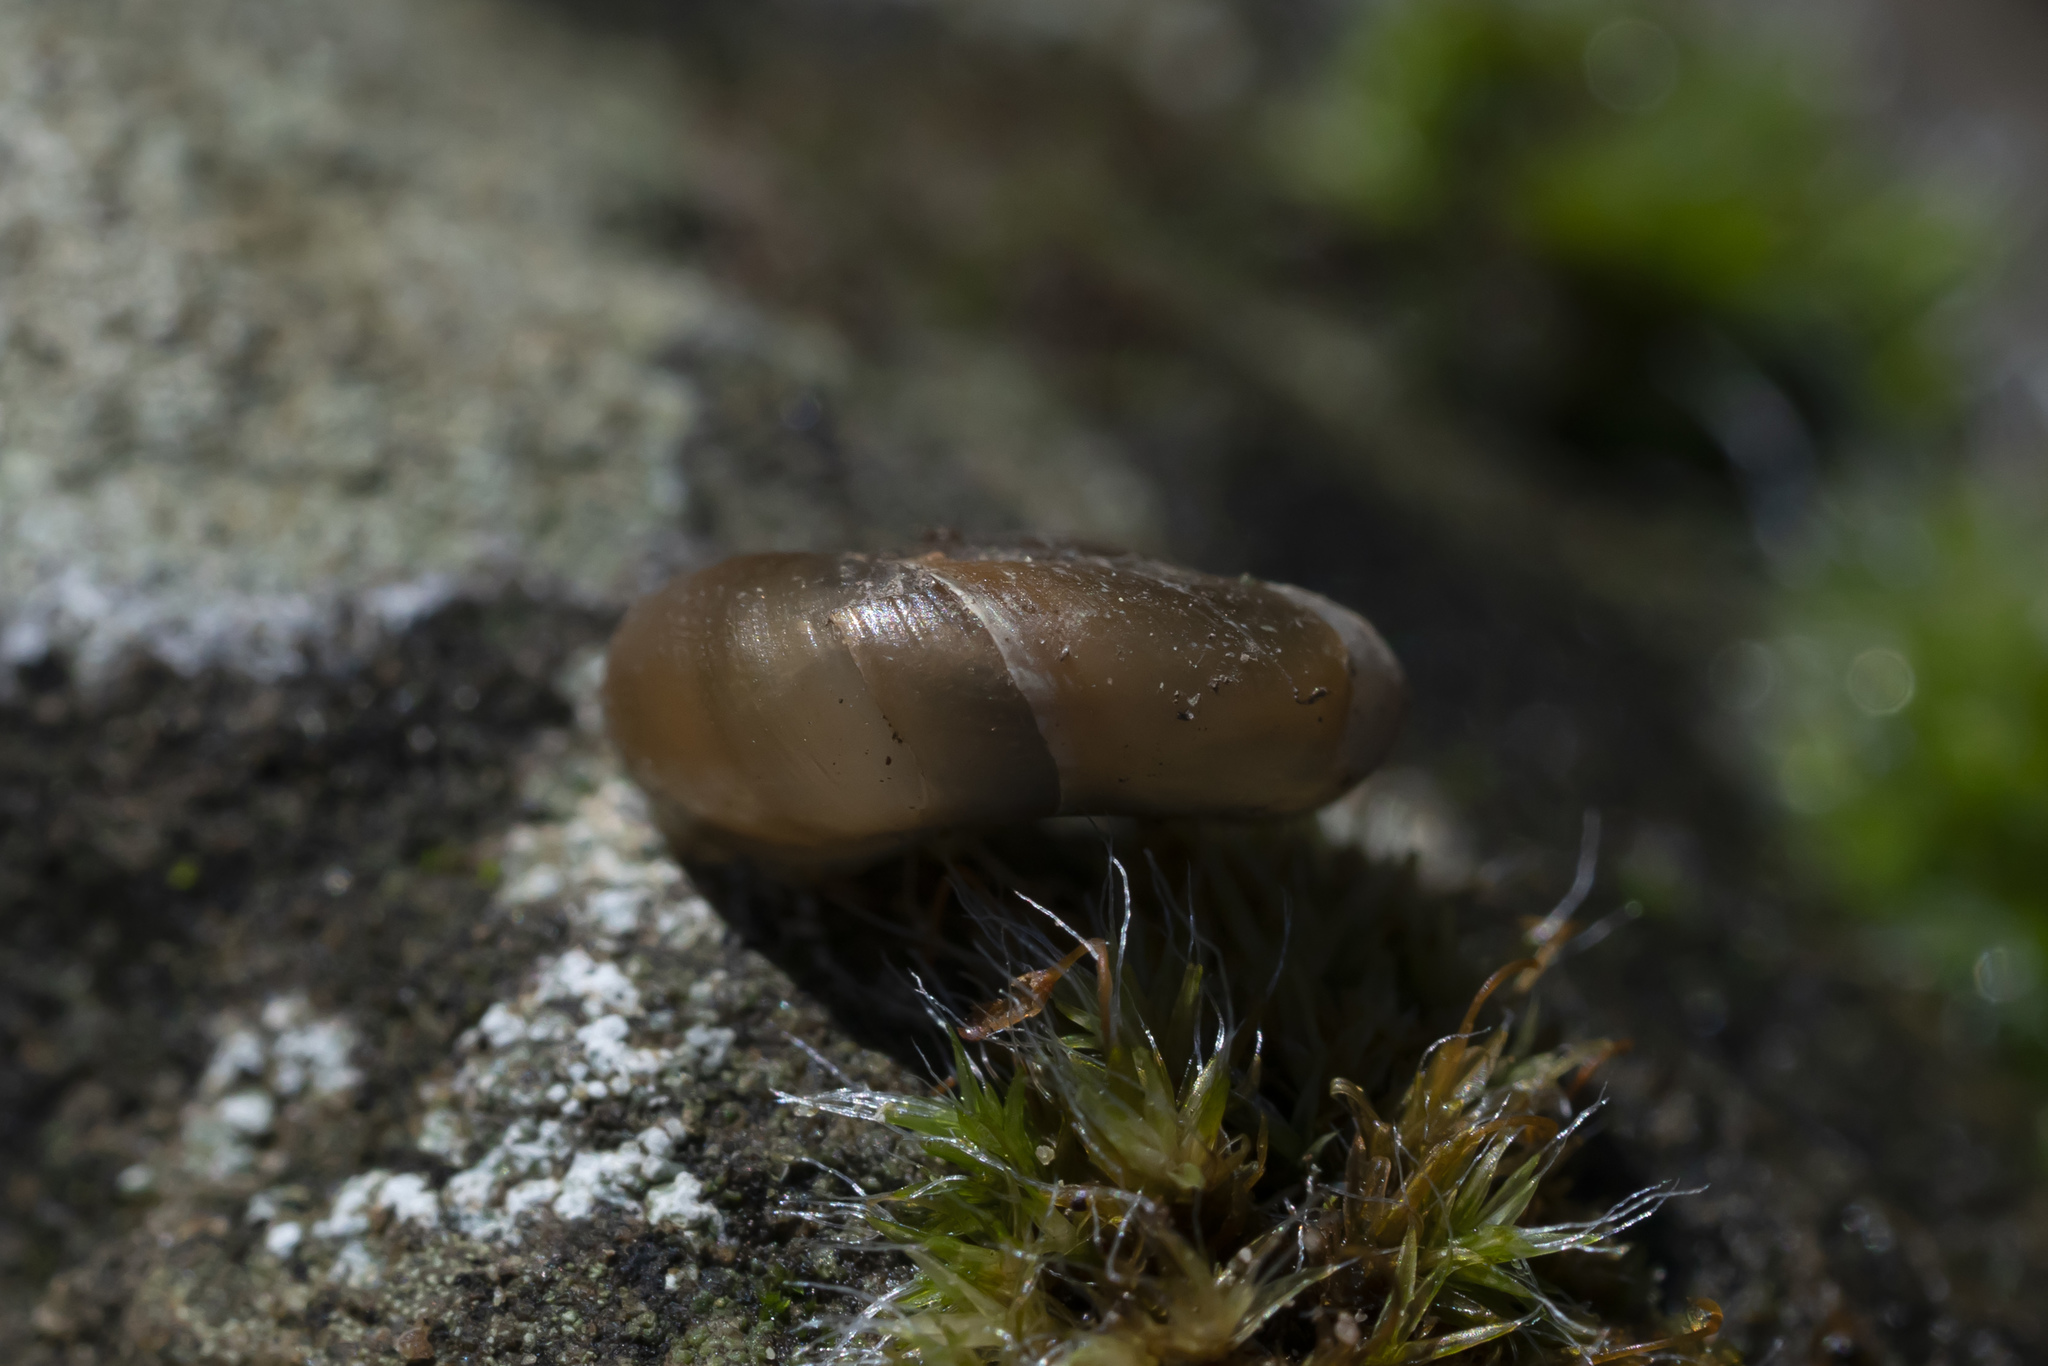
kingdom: Animalia
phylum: Mollusca
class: Gastropoda
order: Stylommatophora
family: Oxychilidae
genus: Eopolita
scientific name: Eopolita protensa
